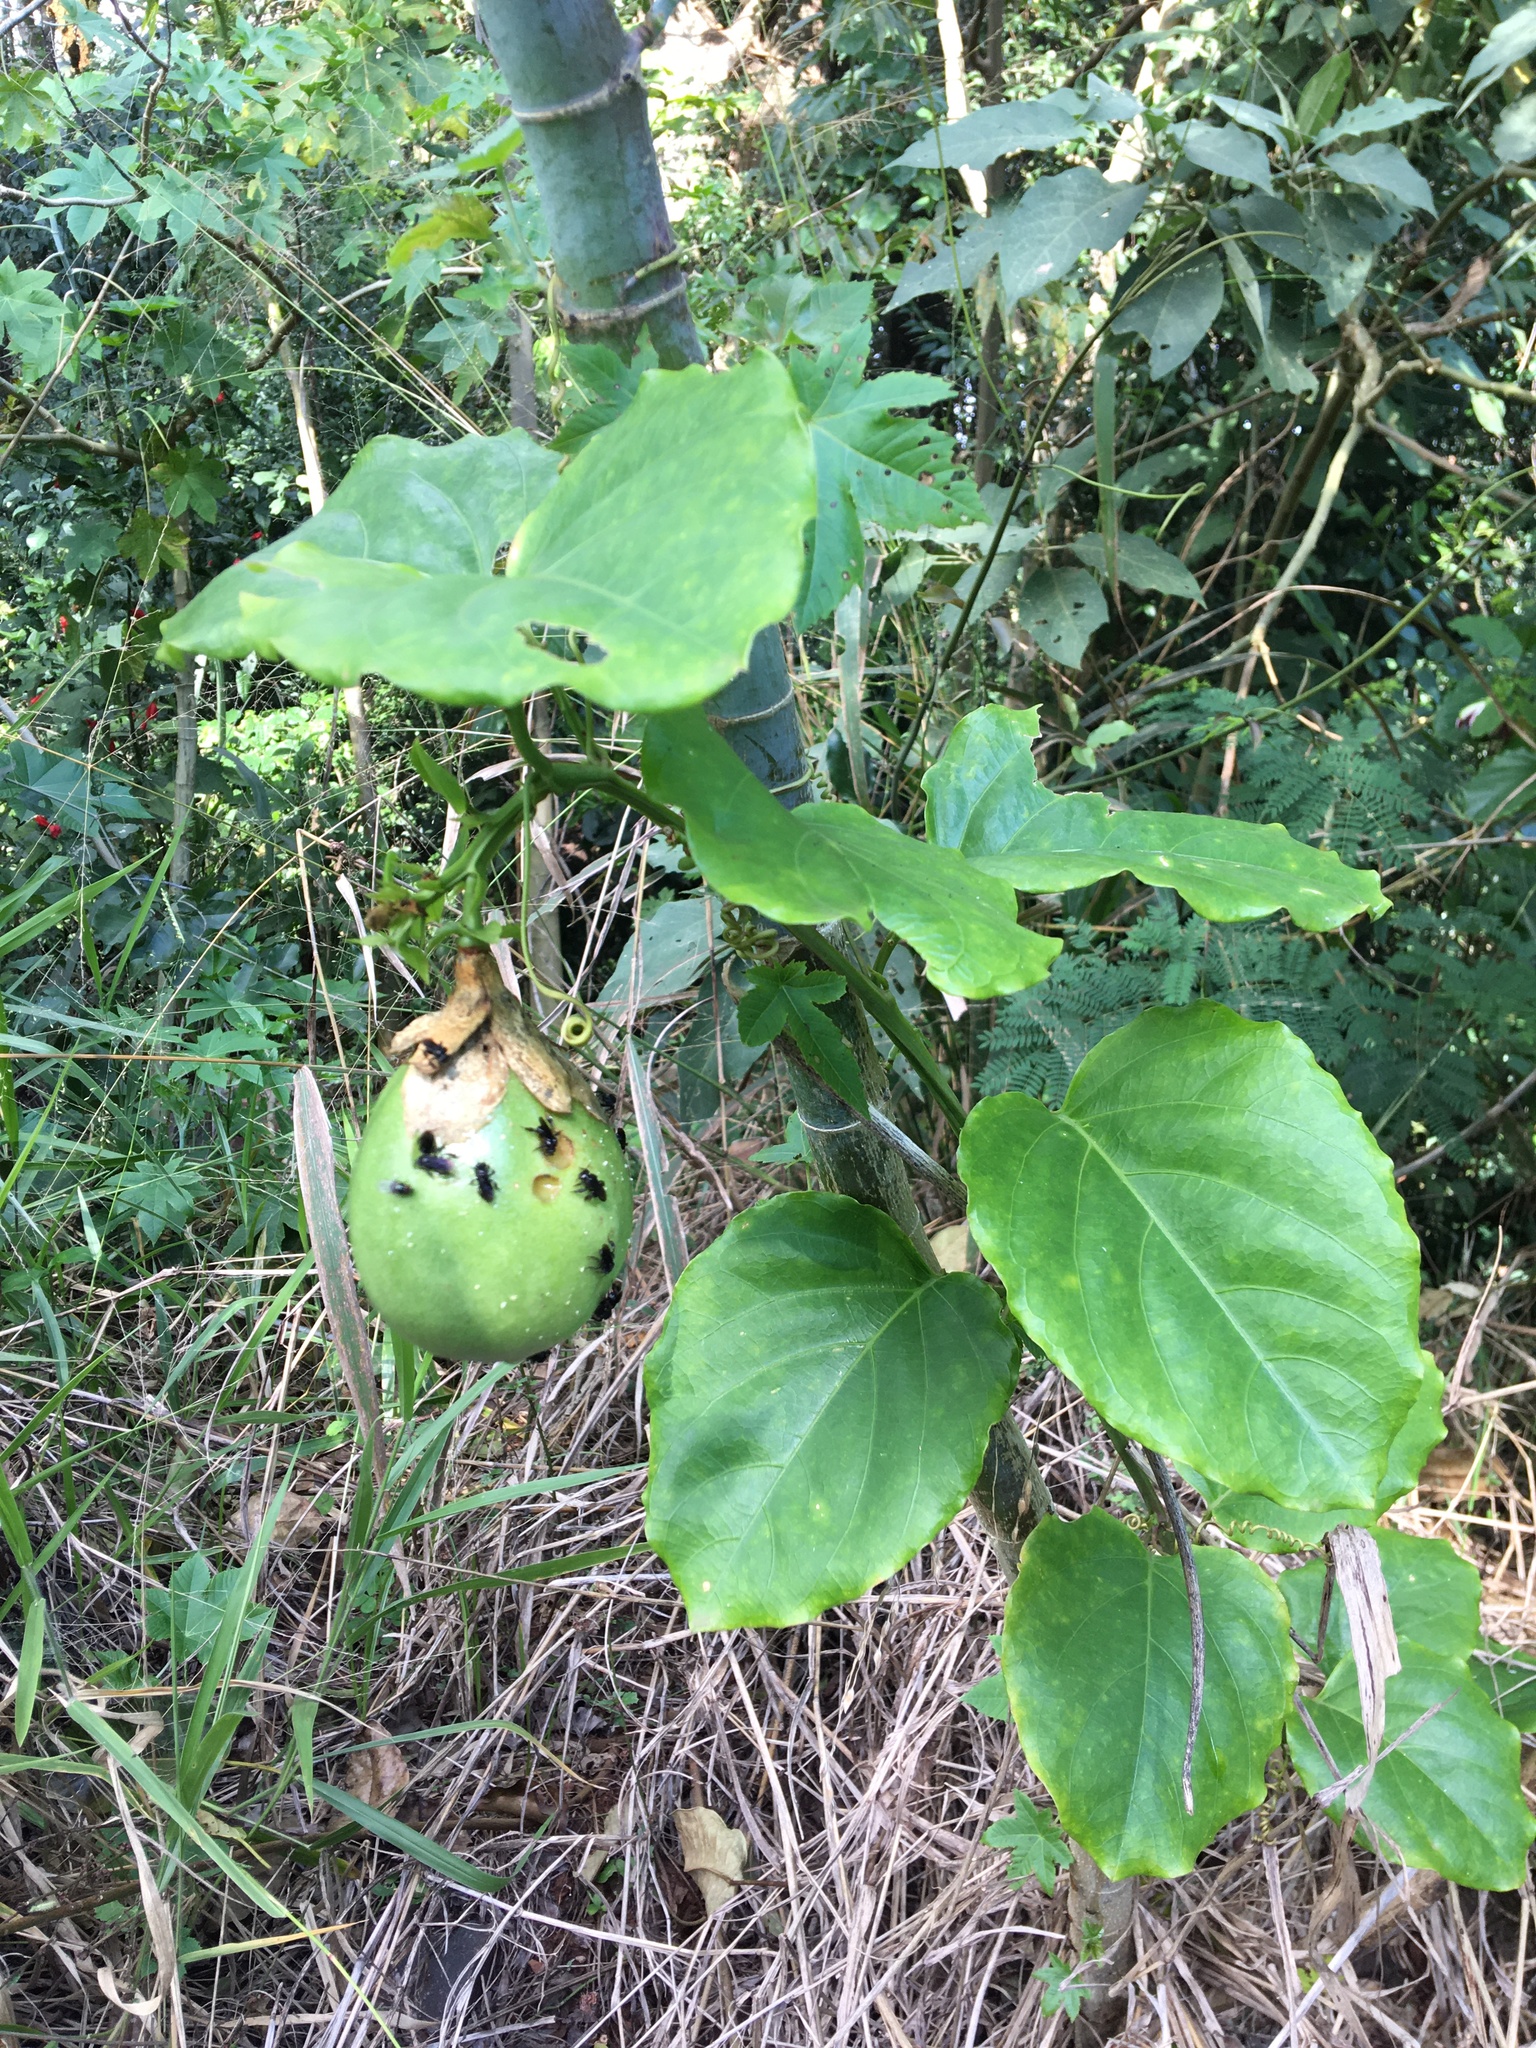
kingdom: Plantae
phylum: Tracheophyta
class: Magnoliopsida
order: Malpighiales
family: Passifloraceae
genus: Passiflora
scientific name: Passiflora alata
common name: Wing-stemmed passion flower
